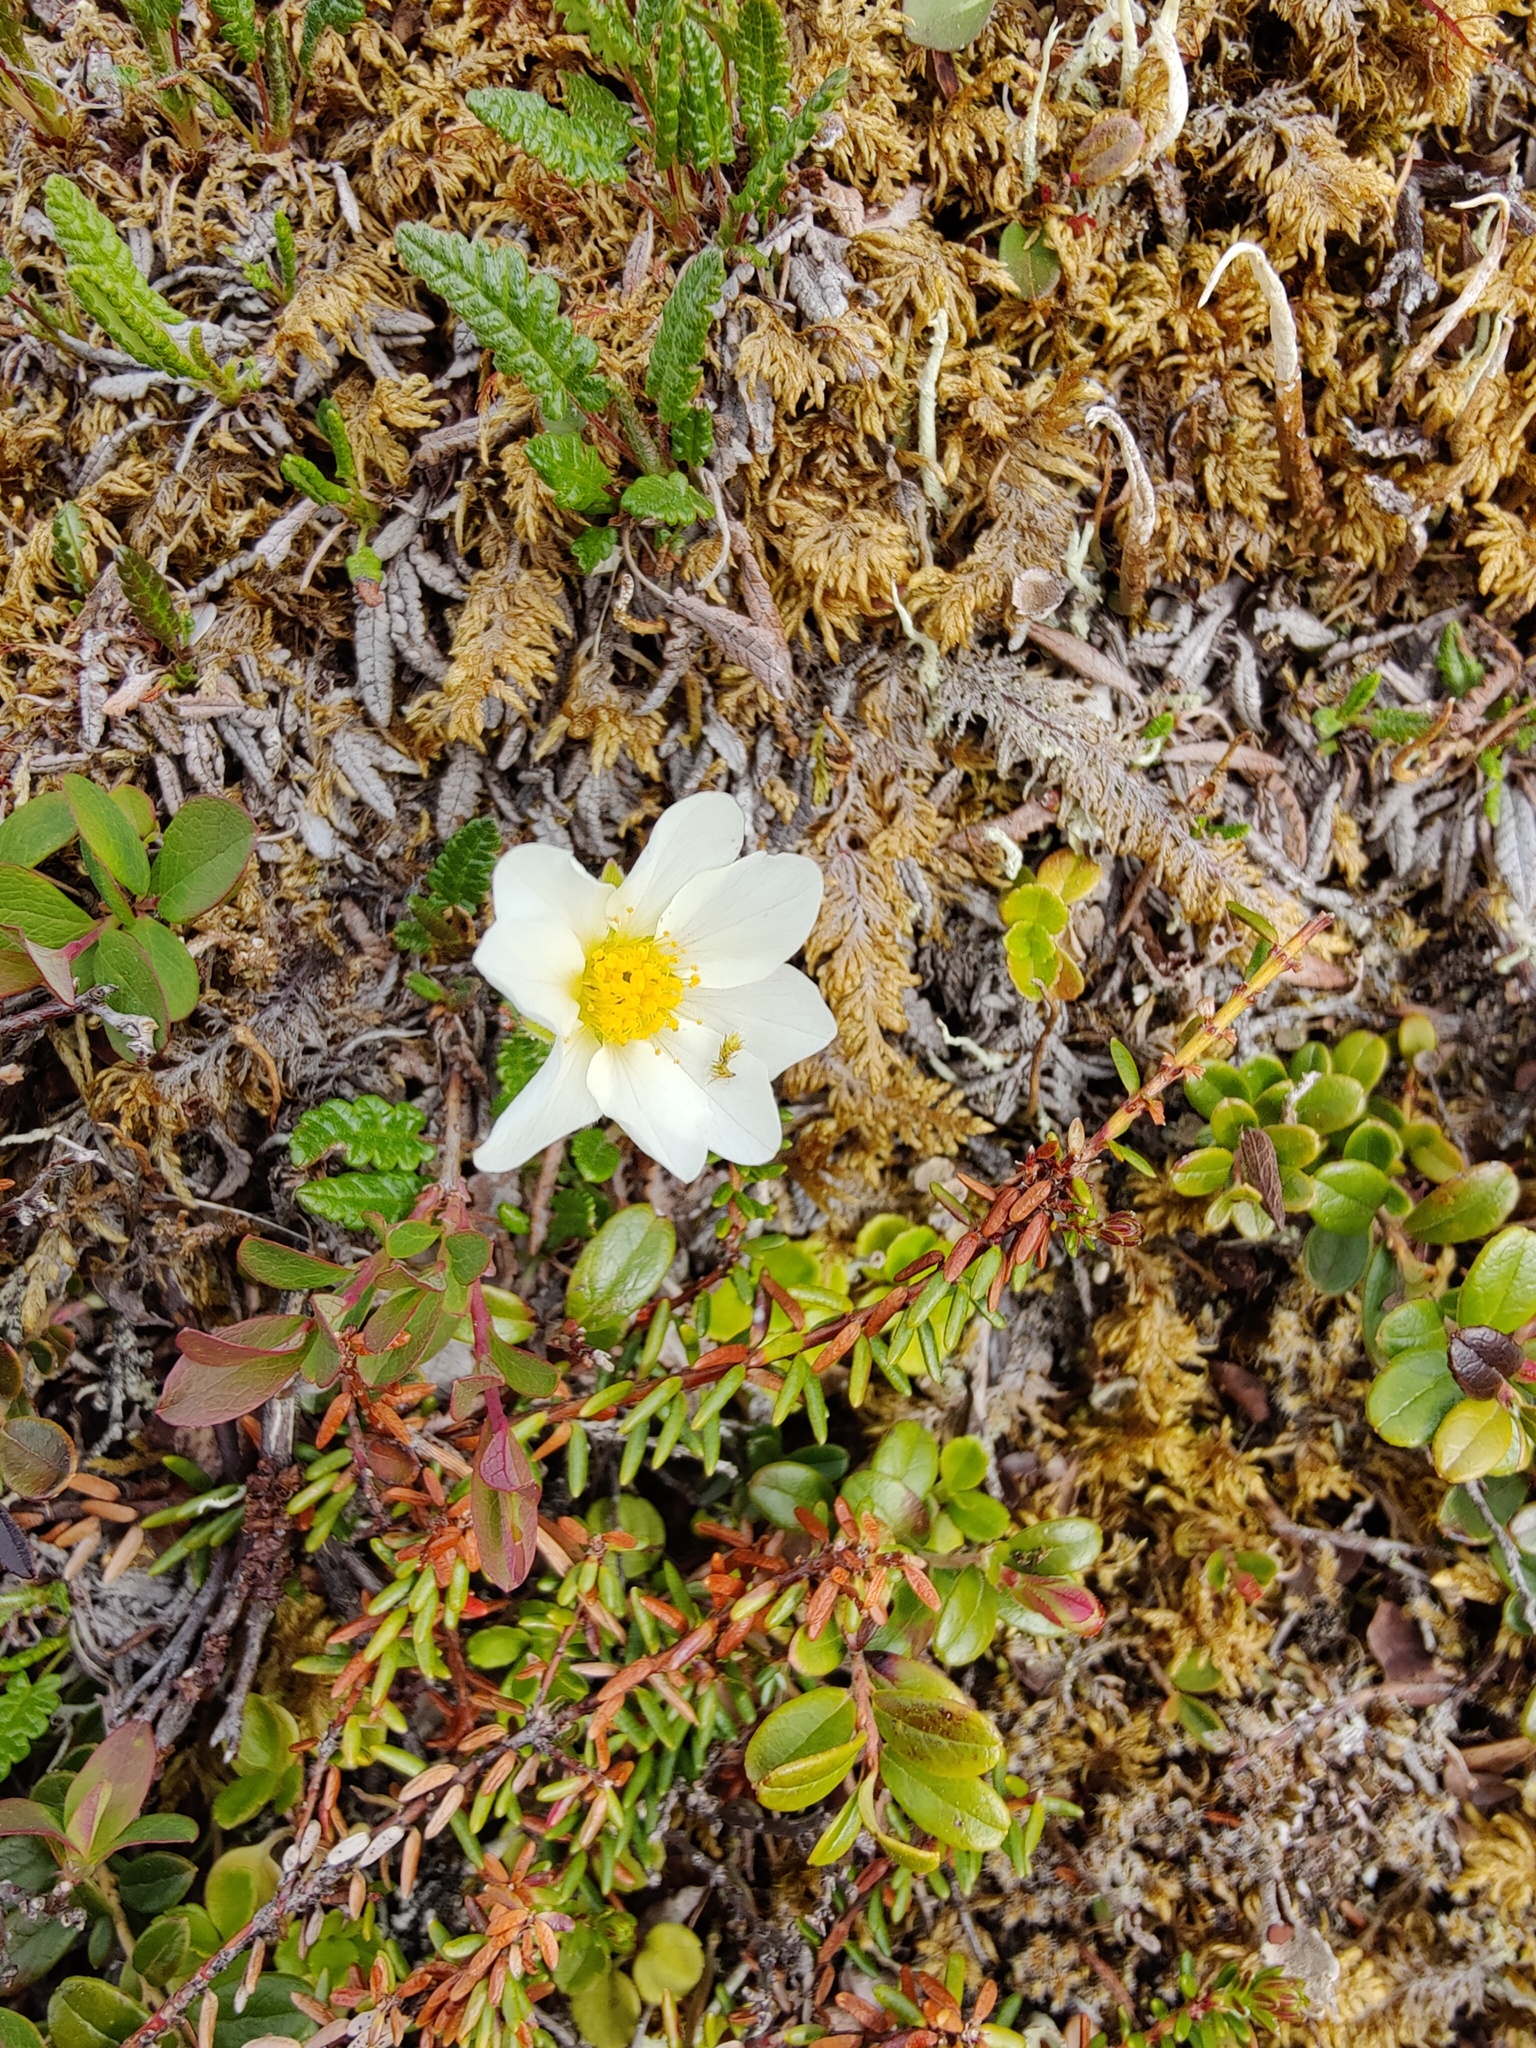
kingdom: Plantae
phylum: Tracheophyta
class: Magnoliopsida
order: Rosales
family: Rosaceae
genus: Dryas
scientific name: Dryas octopetala
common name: Eight-petal mountain-avens
